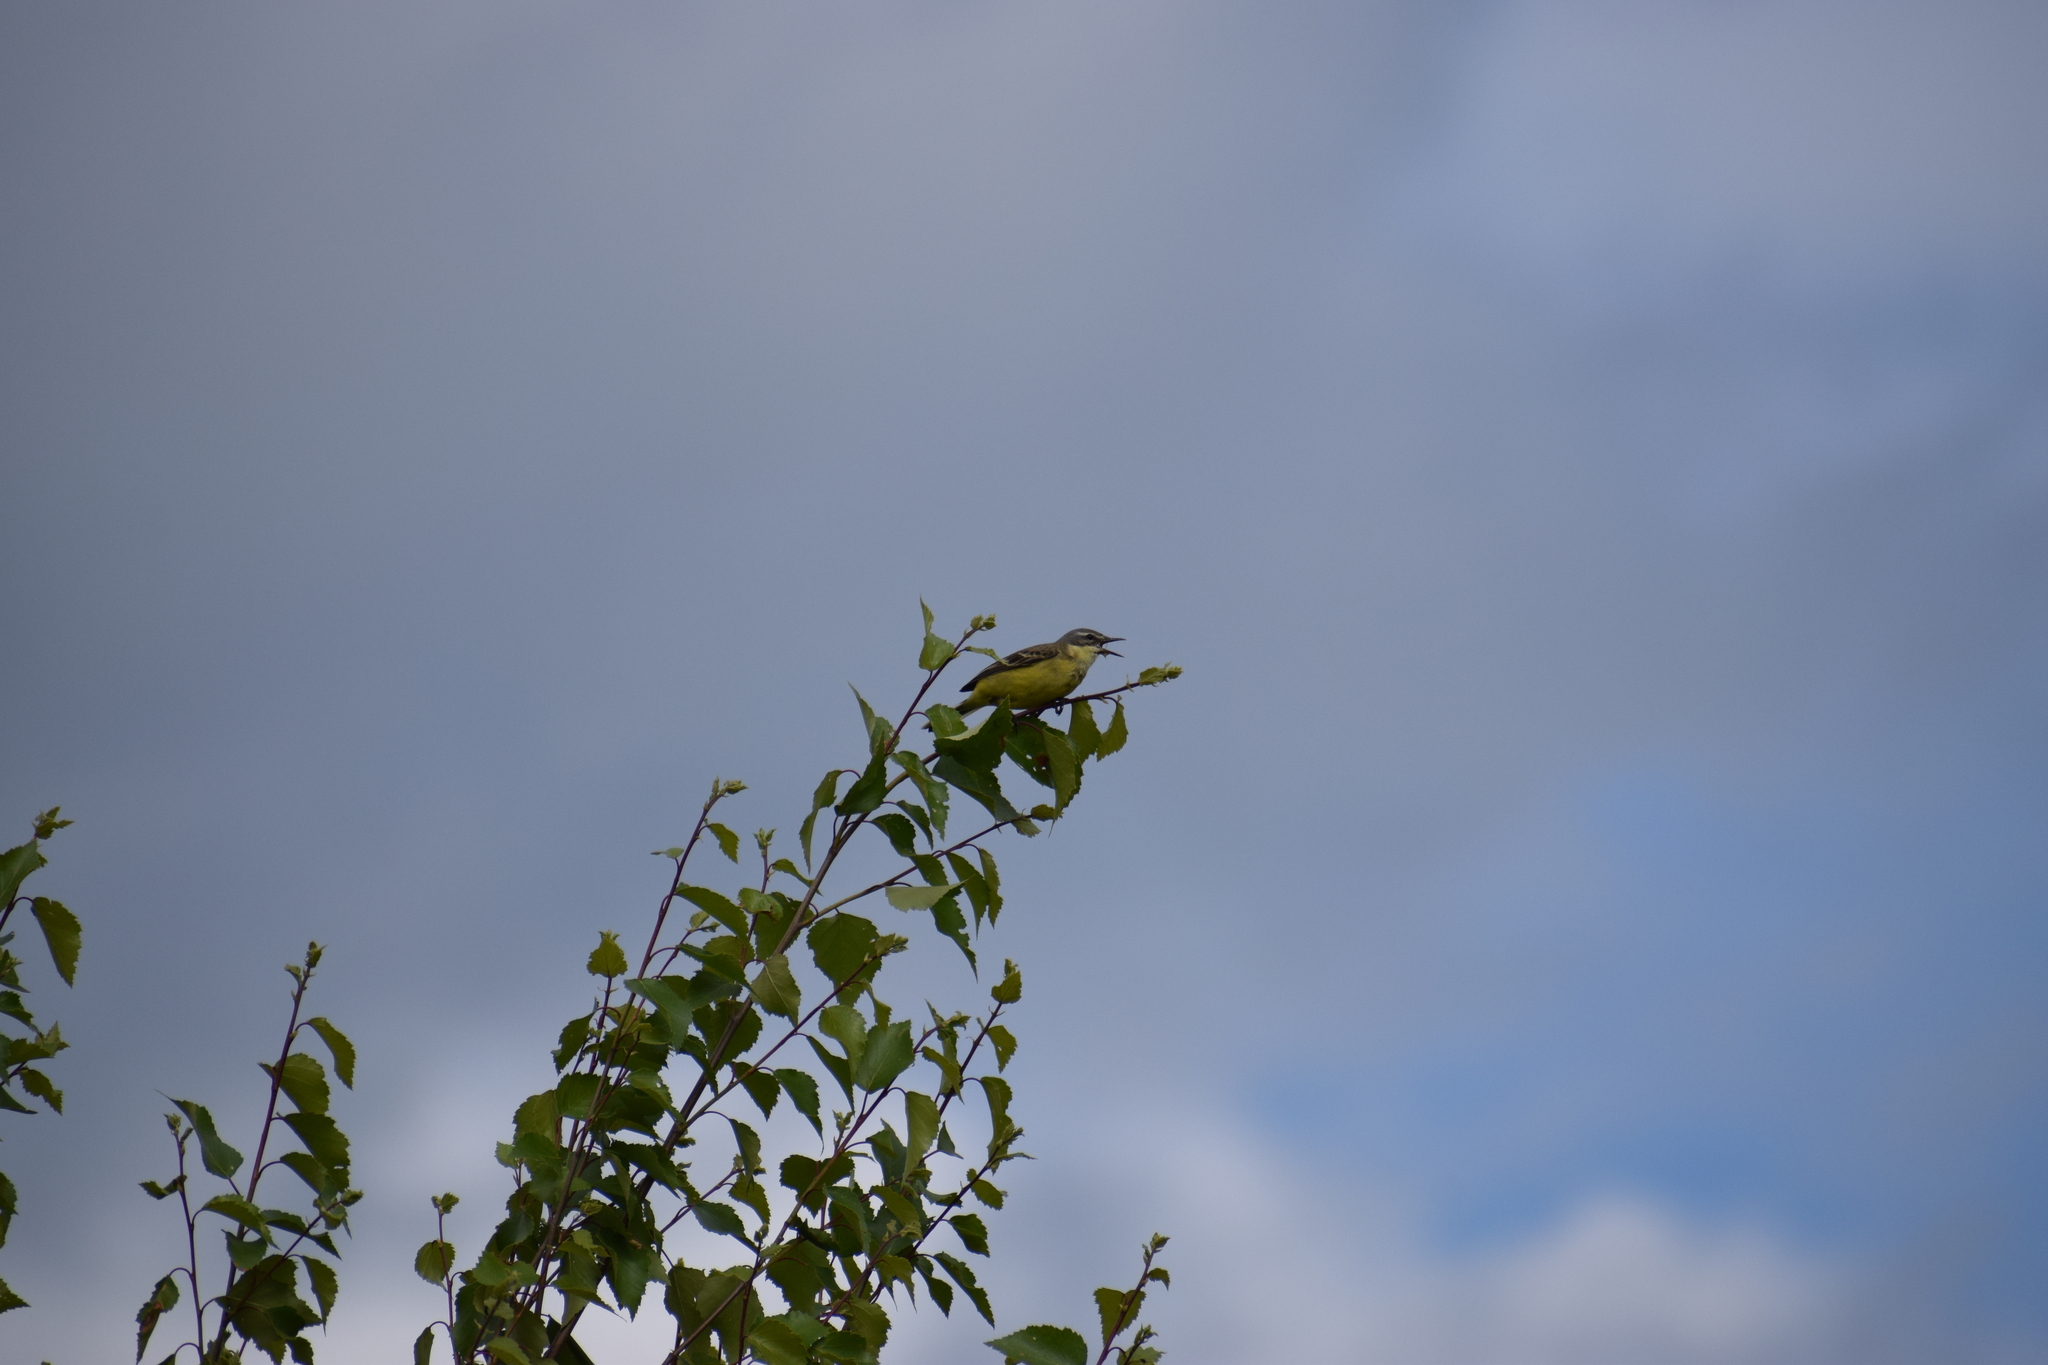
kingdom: Animalia
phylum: Chordata
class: Aves
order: Passeriformes
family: Motacillidae
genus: Motacilla
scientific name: Motacilla flava
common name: Western yellow wagtail
